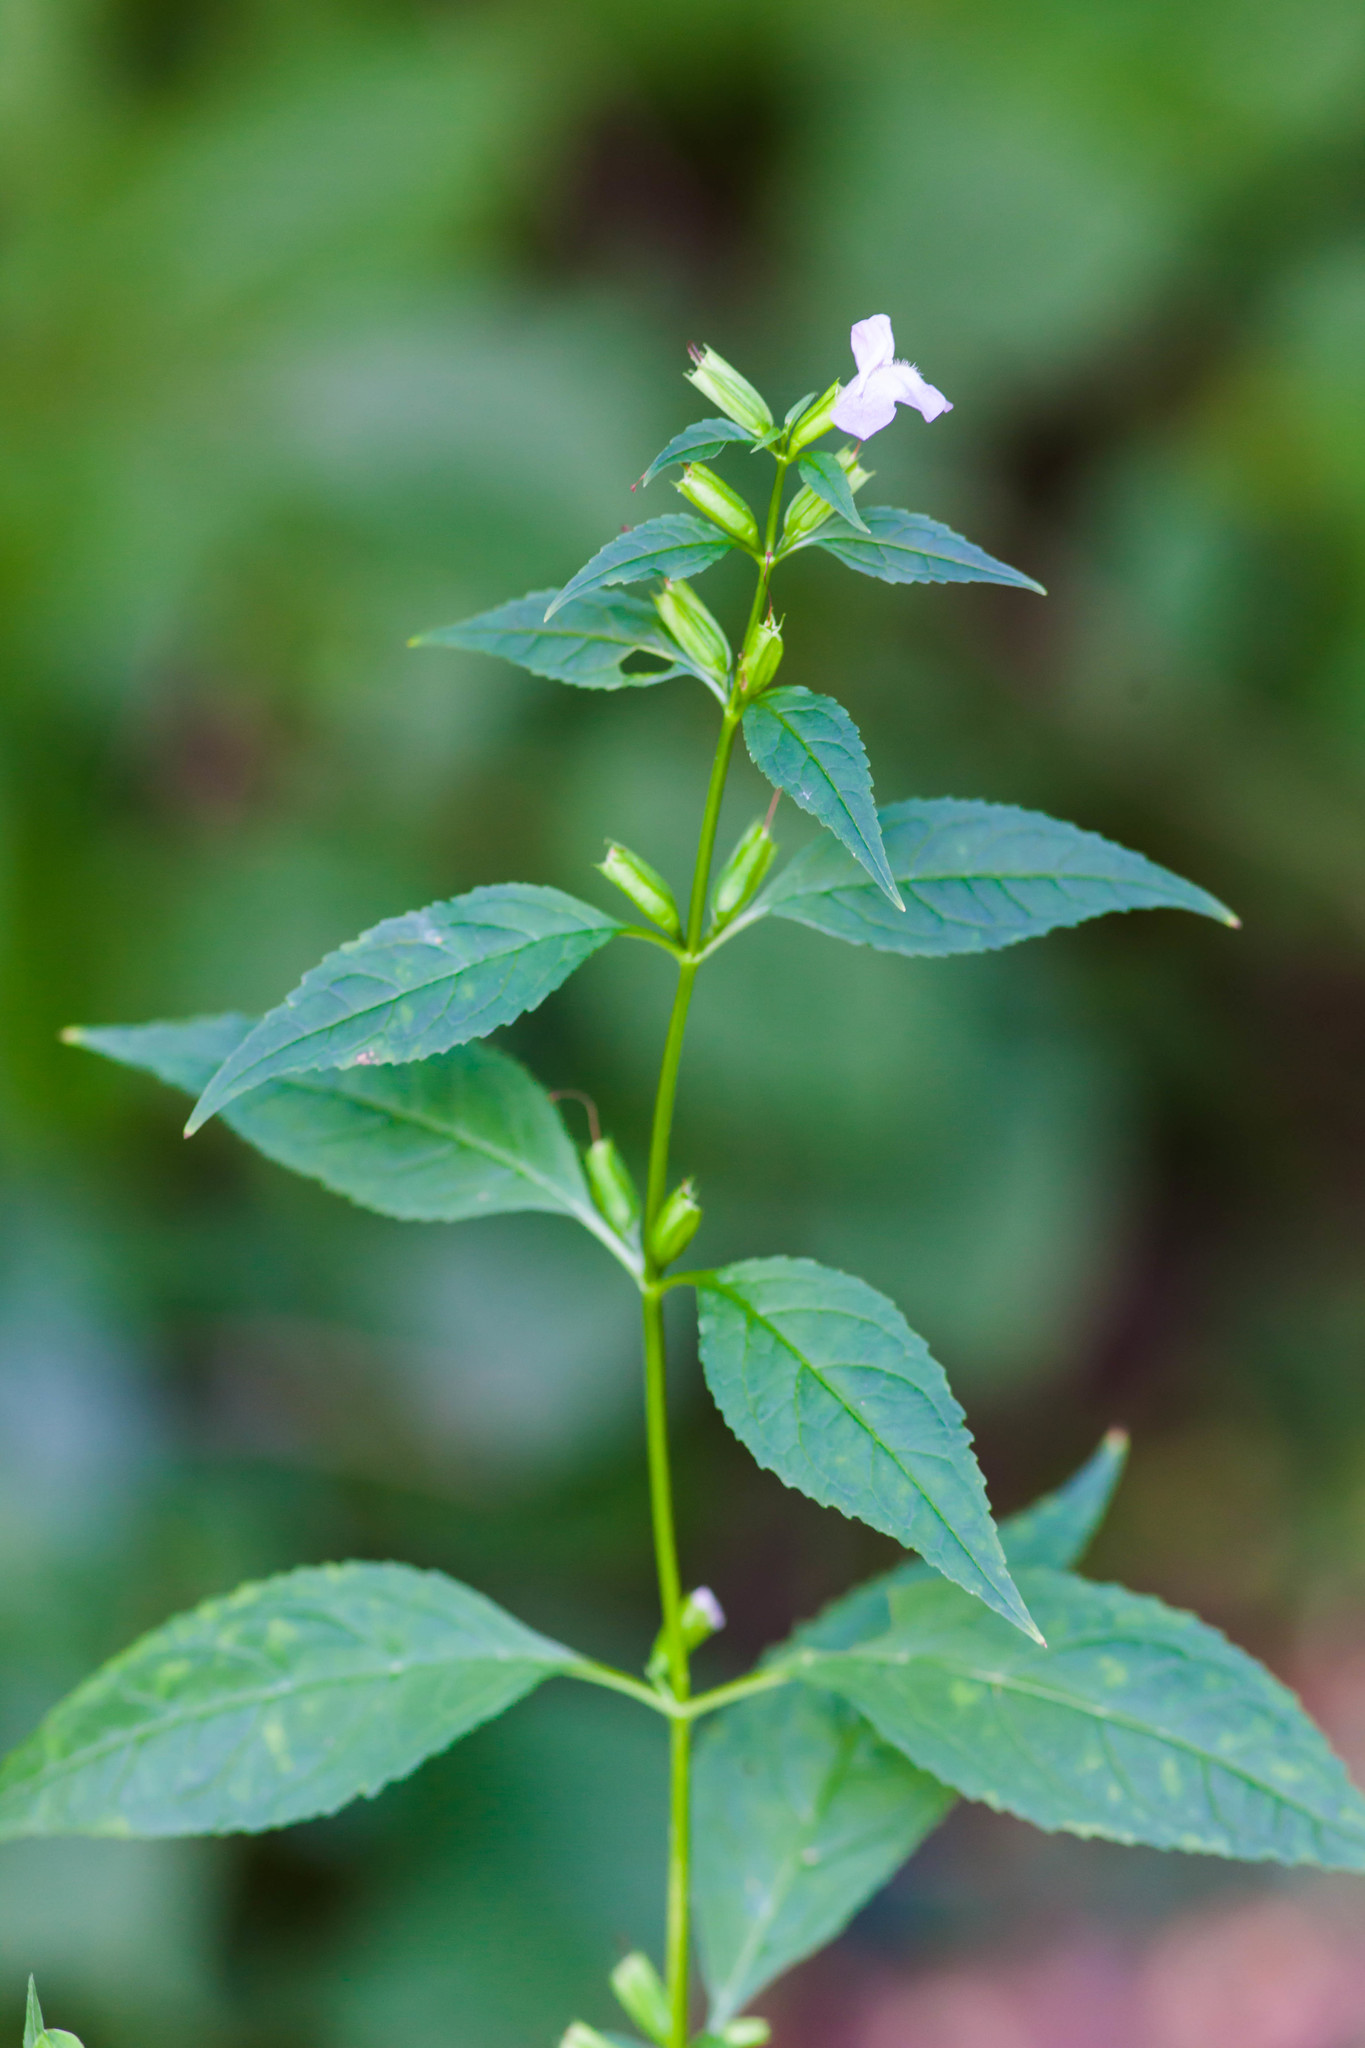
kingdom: Plantae
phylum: Tracheophyta
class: Magnoliopsida
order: Lamiales
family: Phrymaceae
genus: Mimulus
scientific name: Mimulus alatus
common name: Sharp-wing monkey-flower
